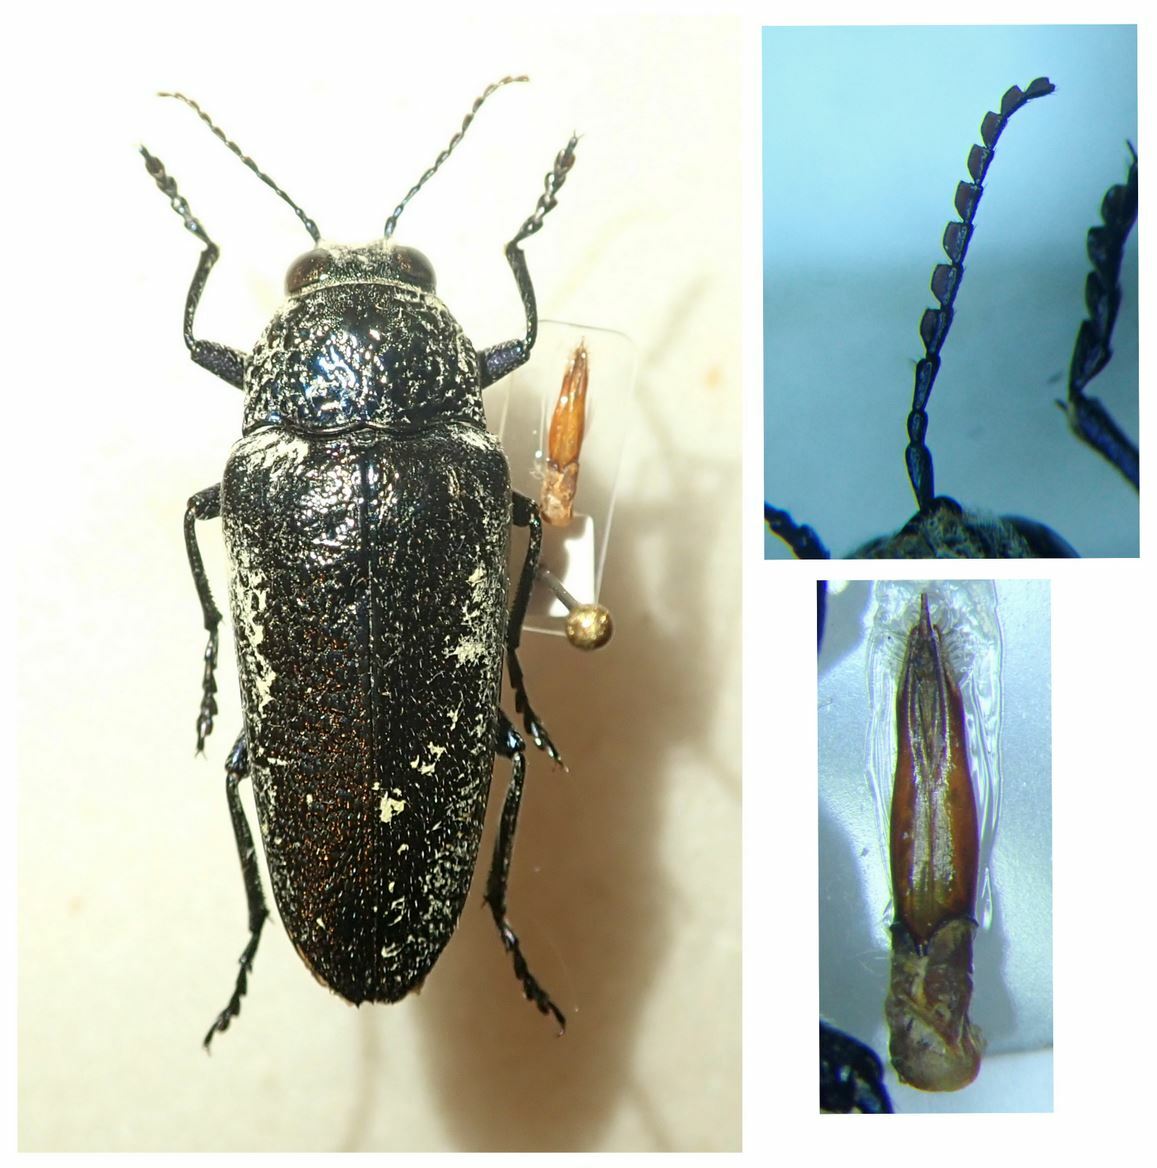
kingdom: Animalia
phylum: Arthropoda
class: Insecta
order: Coleoptera
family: Buprestidae
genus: Gyascutus
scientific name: Gyascutus caelatus
